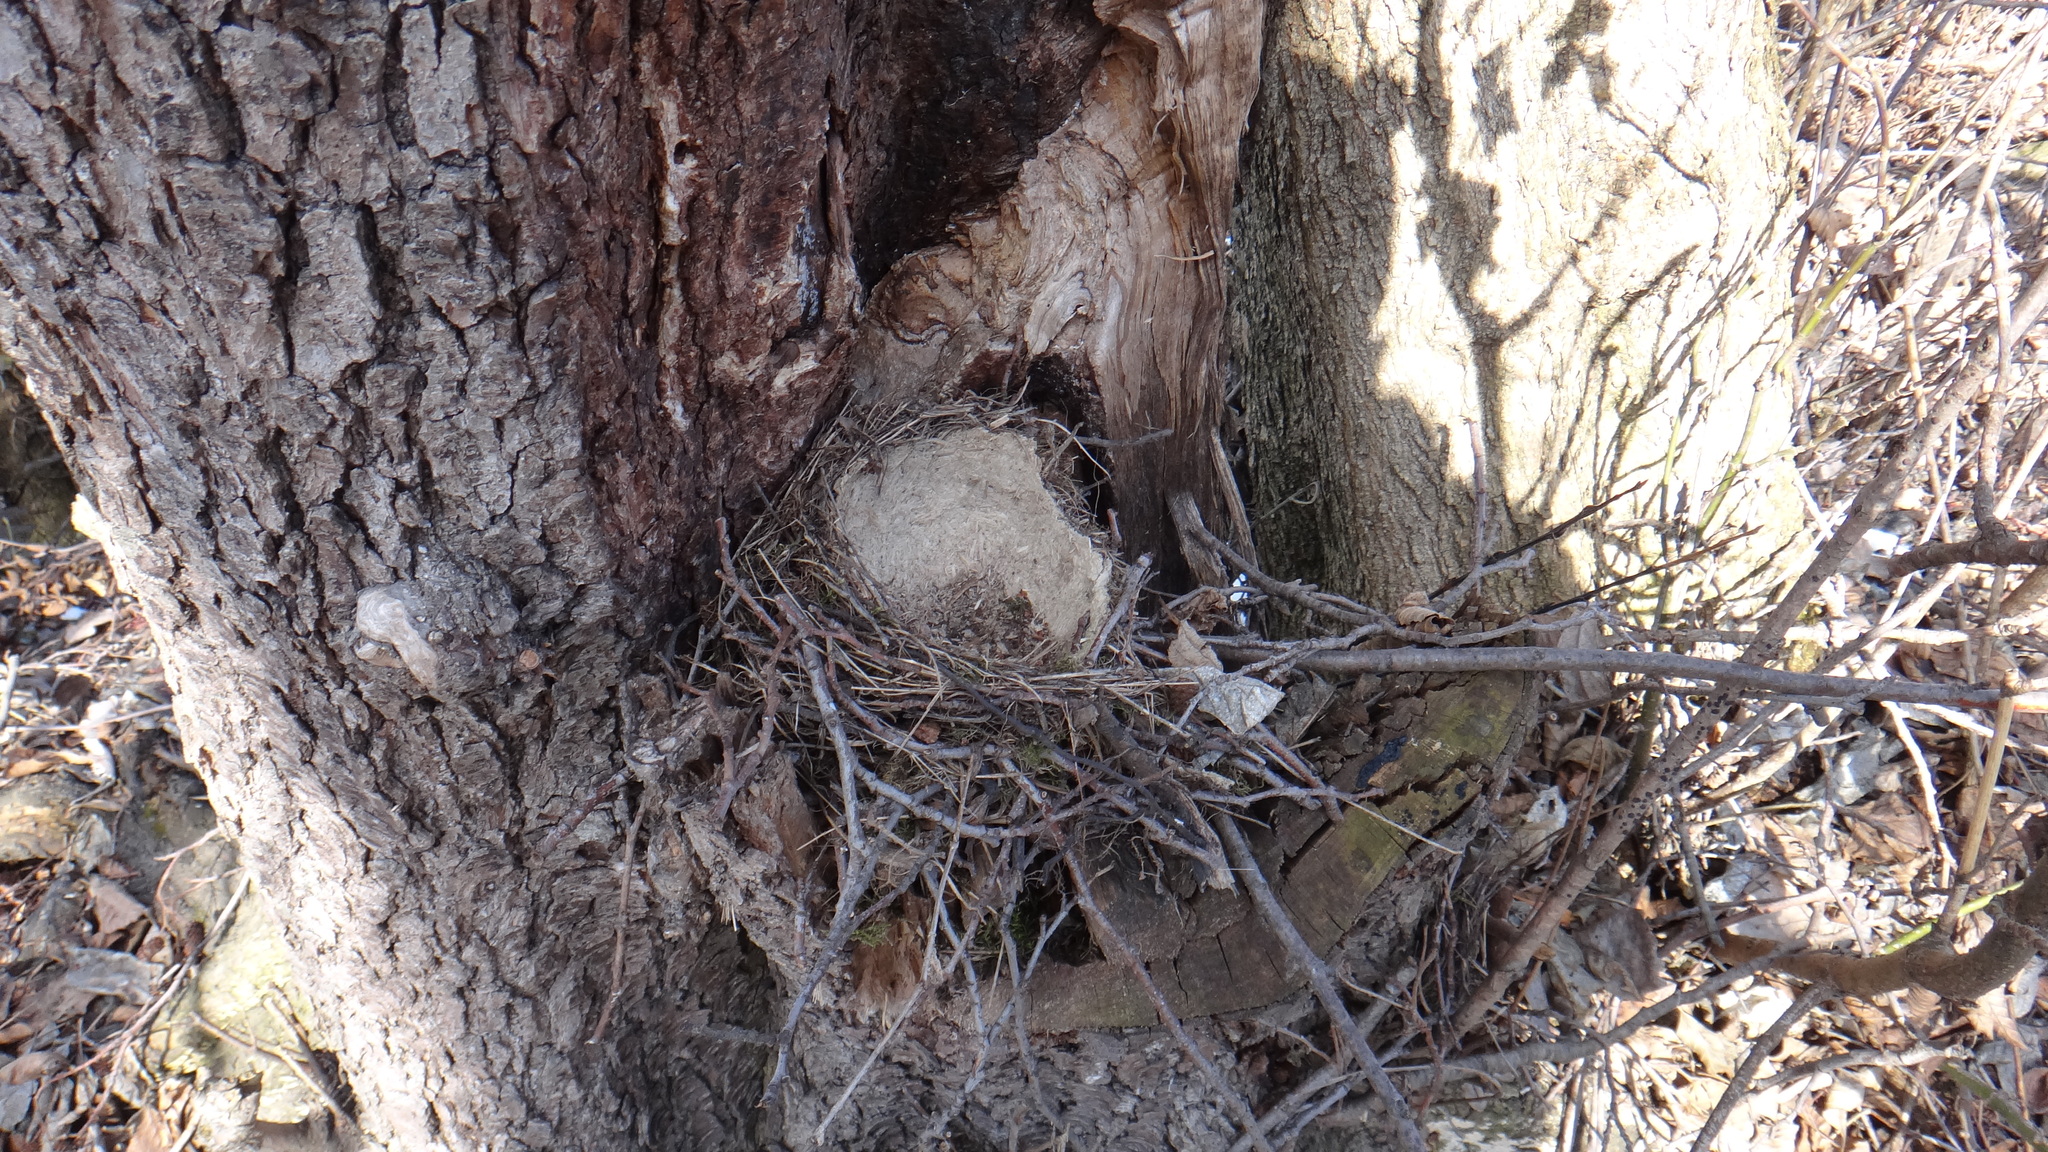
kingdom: Animalia
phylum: Chordata
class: Aves
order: Passeriformes
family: Turdidae
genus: Turdus
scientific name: Turdus philomelos
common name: Song thrush
